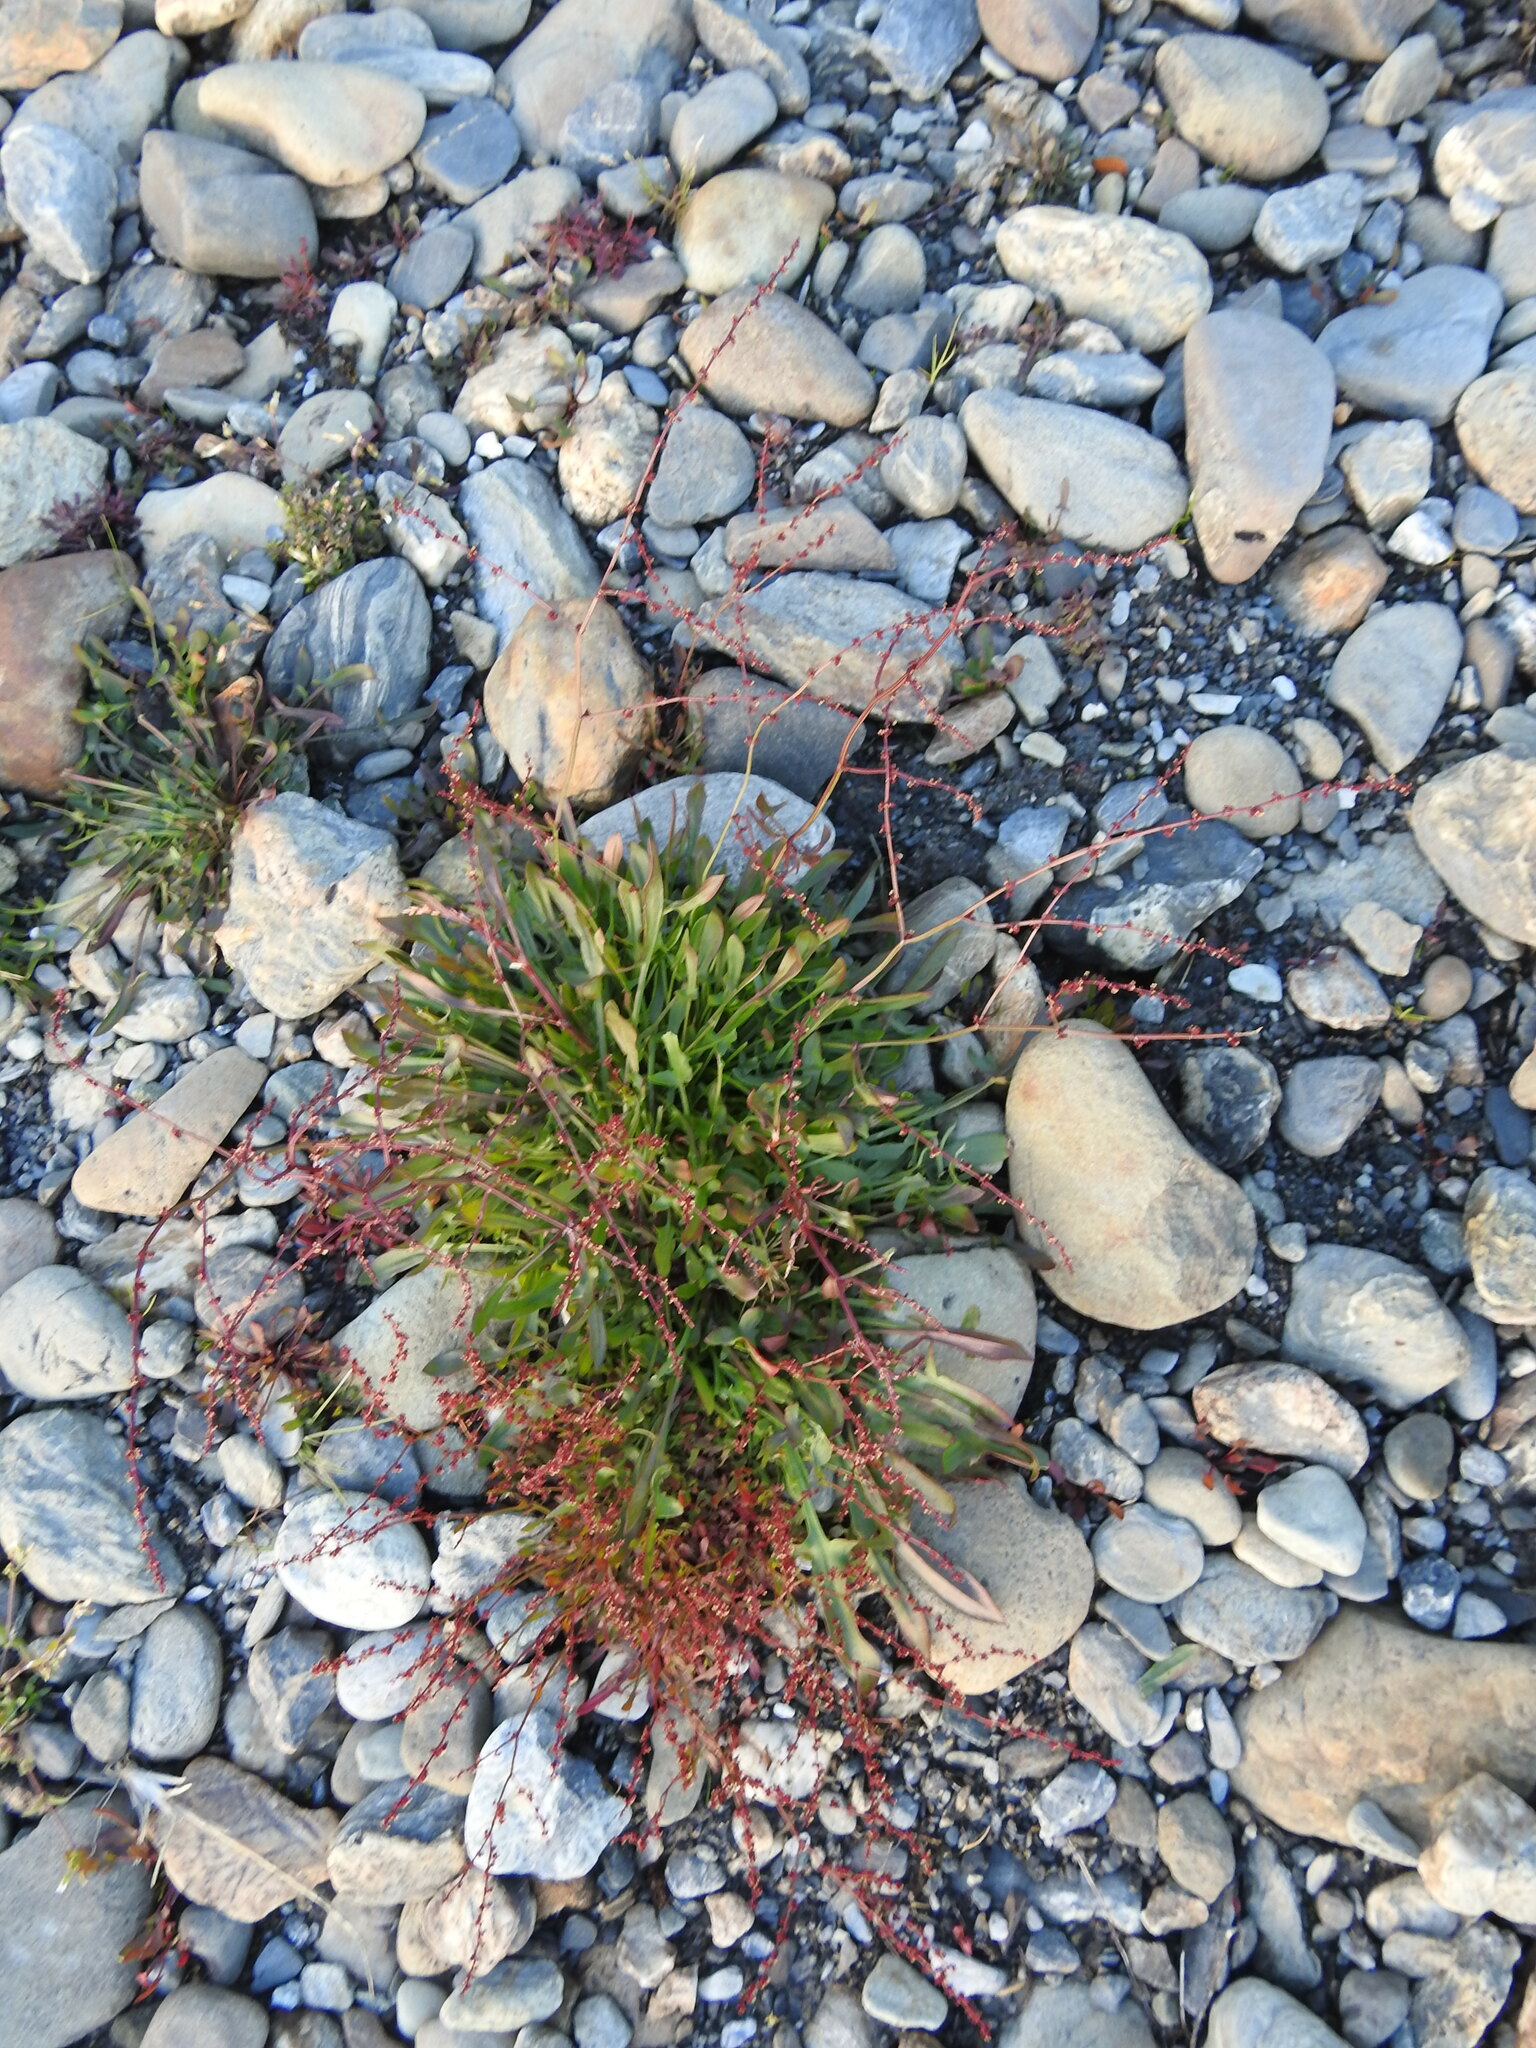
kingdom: Plantae
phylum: Tracheophyta
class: Magnoliopsida
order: Caryophyllales
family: Polygonaceae
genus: Rumex
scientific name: Rumex acetosella
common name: Common sheep sorrel
